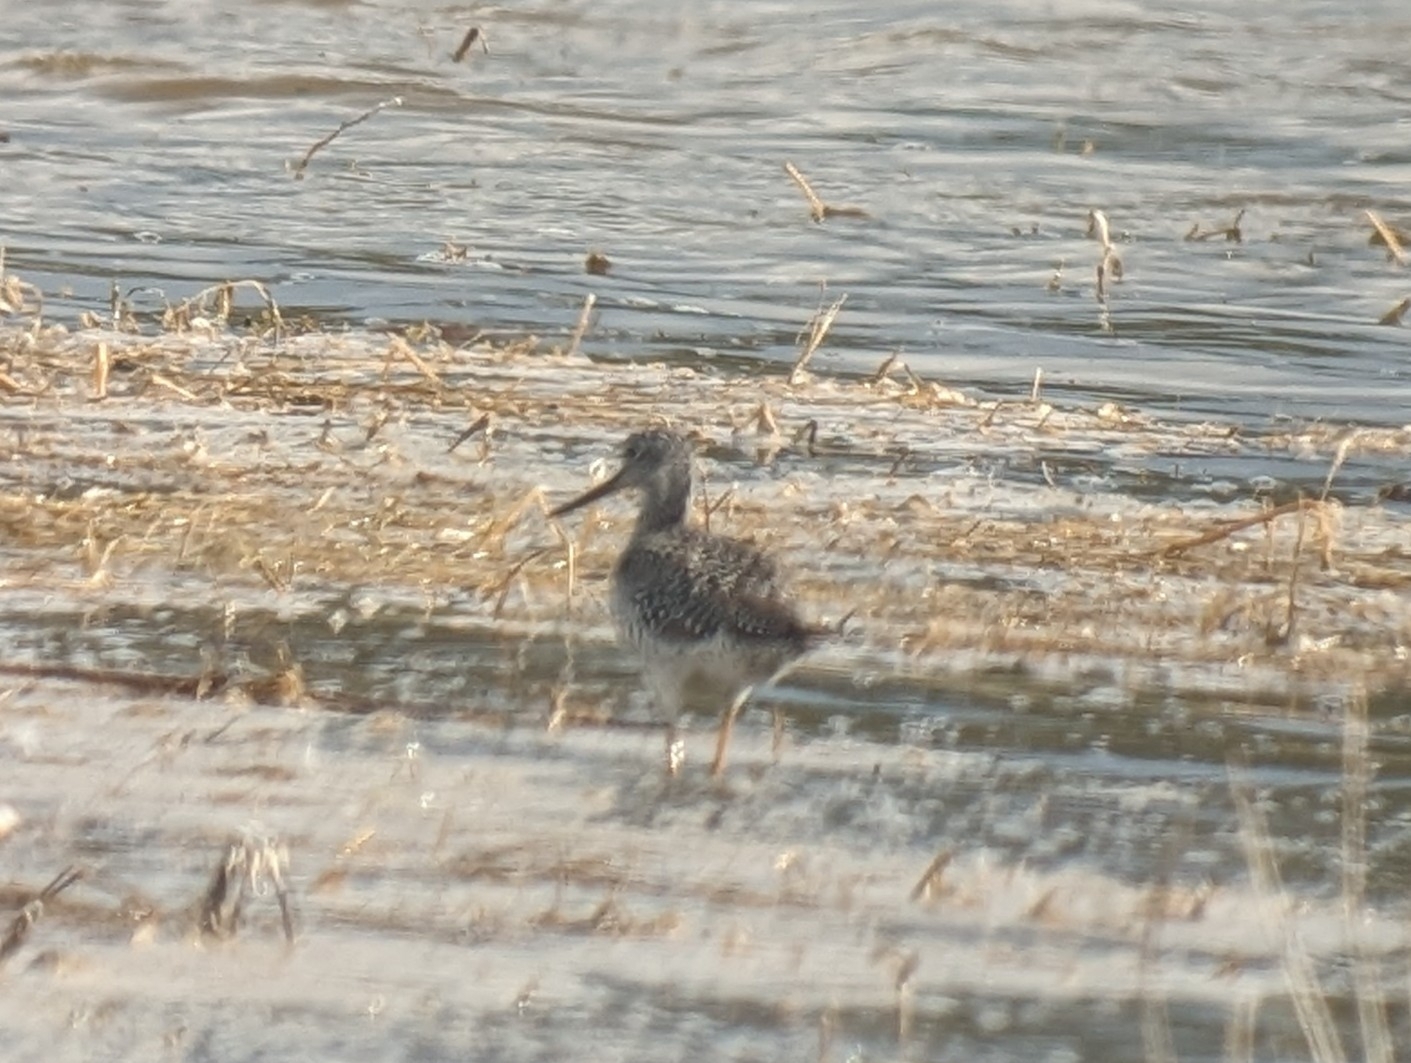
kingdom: Animalia
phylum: Chordata
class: Aves
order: Charadriiformes
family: Scolopacidae
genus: Tringa
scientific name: Tringa melanoleuca
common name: Greater yellowlegs
